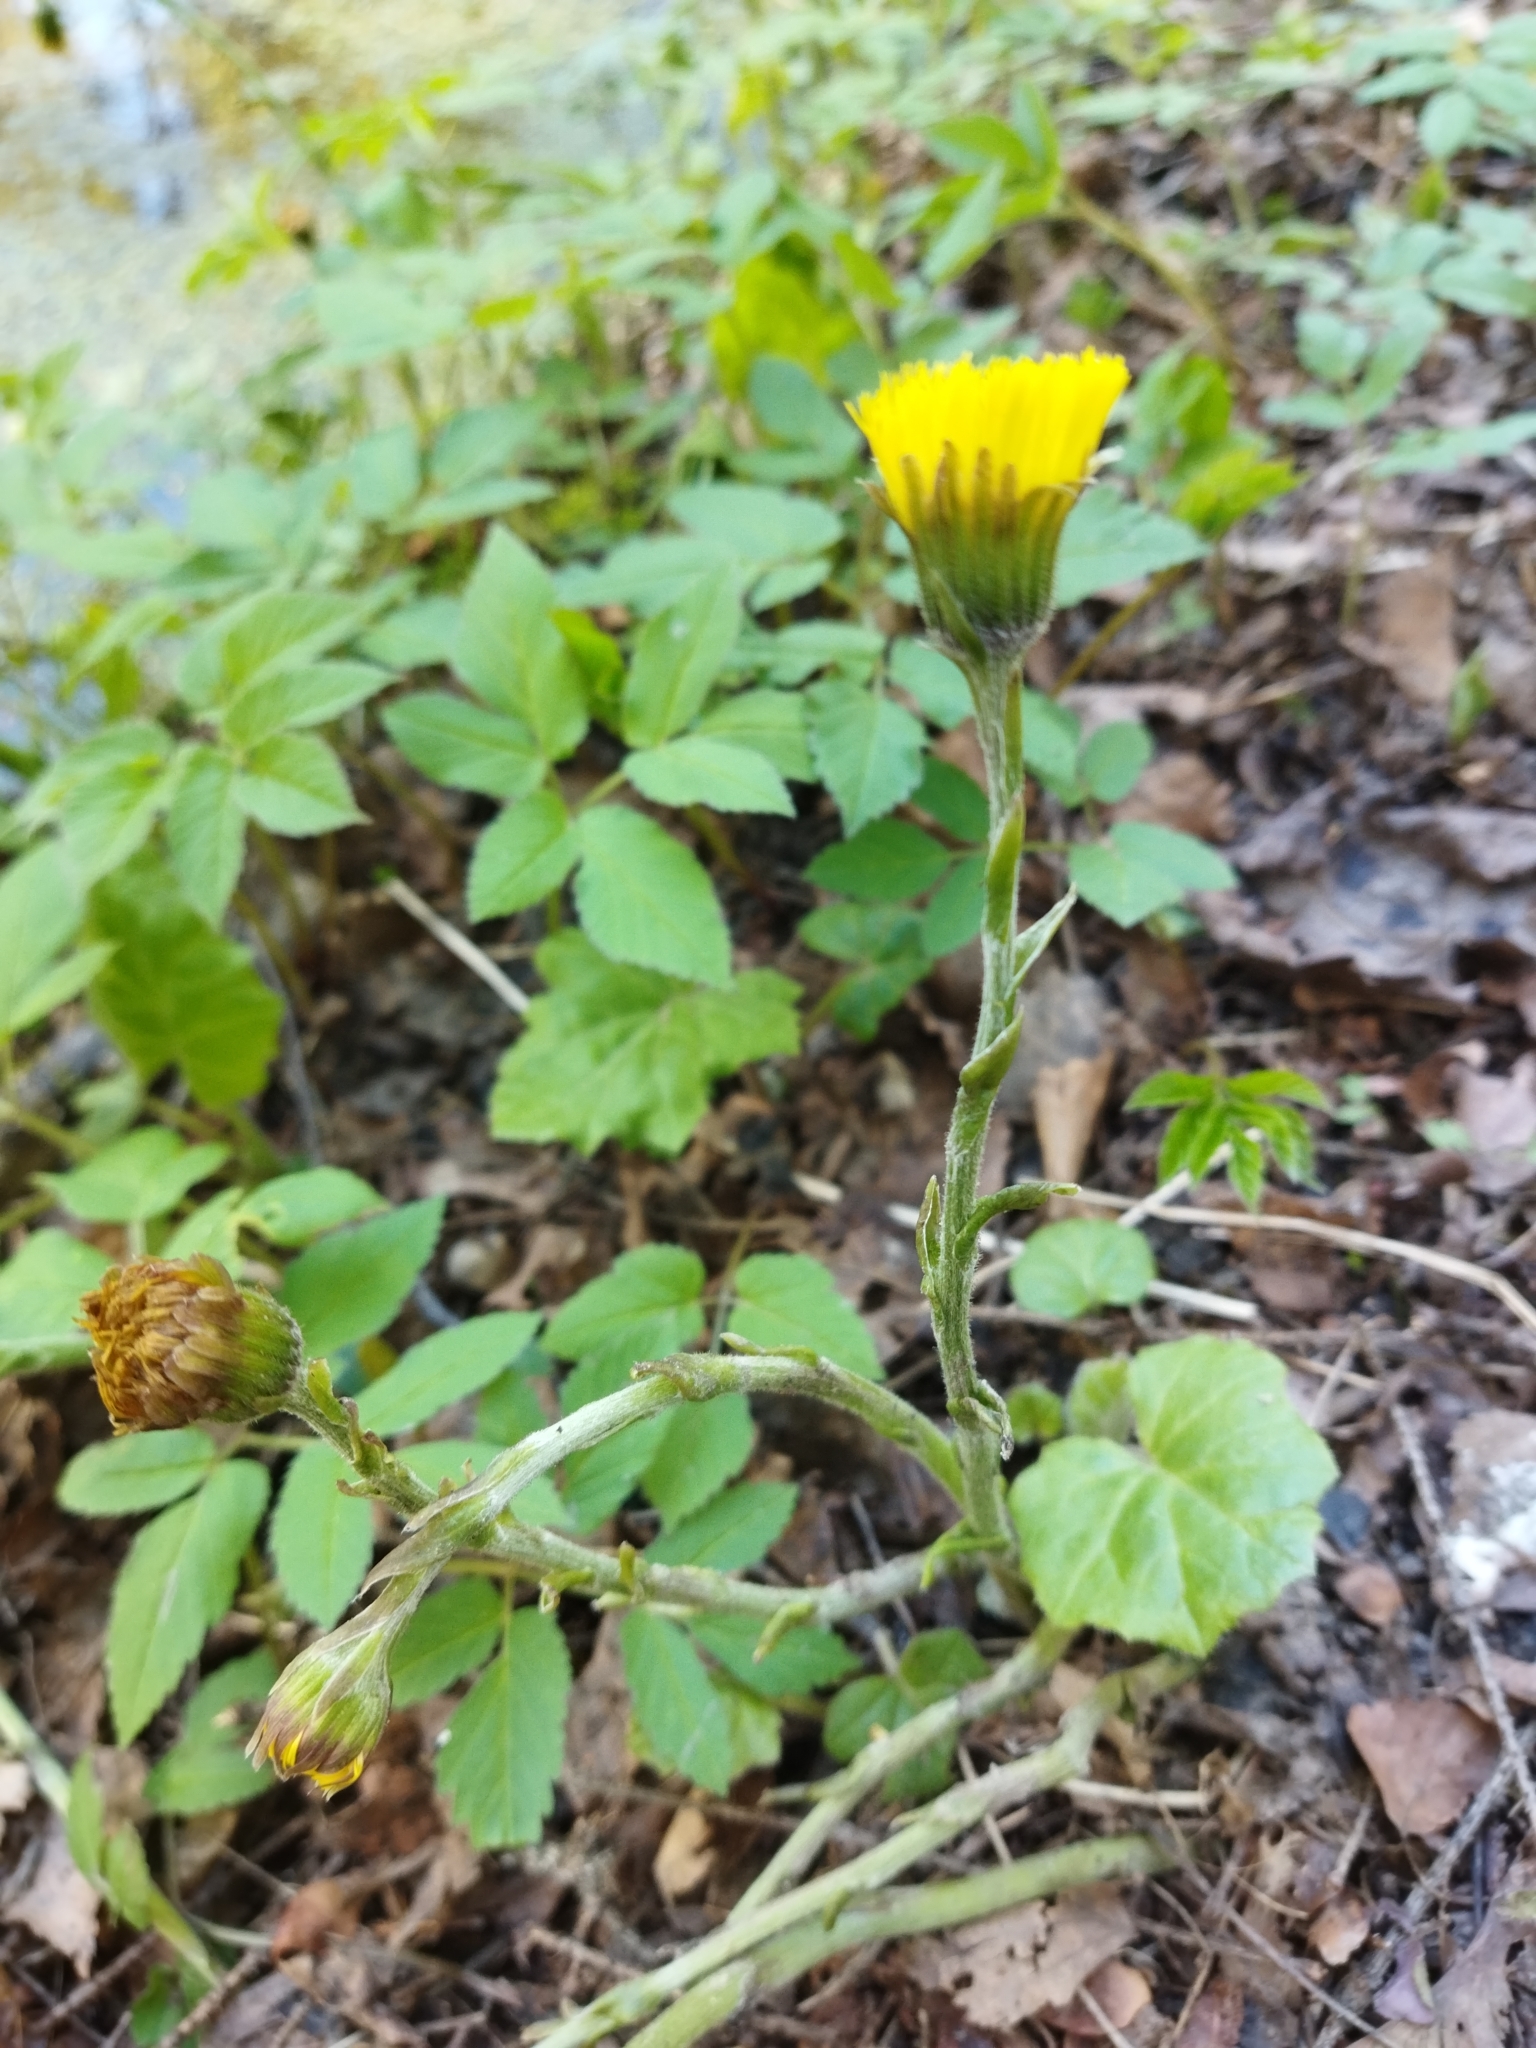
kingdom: Plantae
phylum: Tracheophyta
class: Magnoliopsida
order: Asterales
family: Asteraceae
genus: Tussilago
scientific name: Tussilago farfara
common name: Coltsfoot
